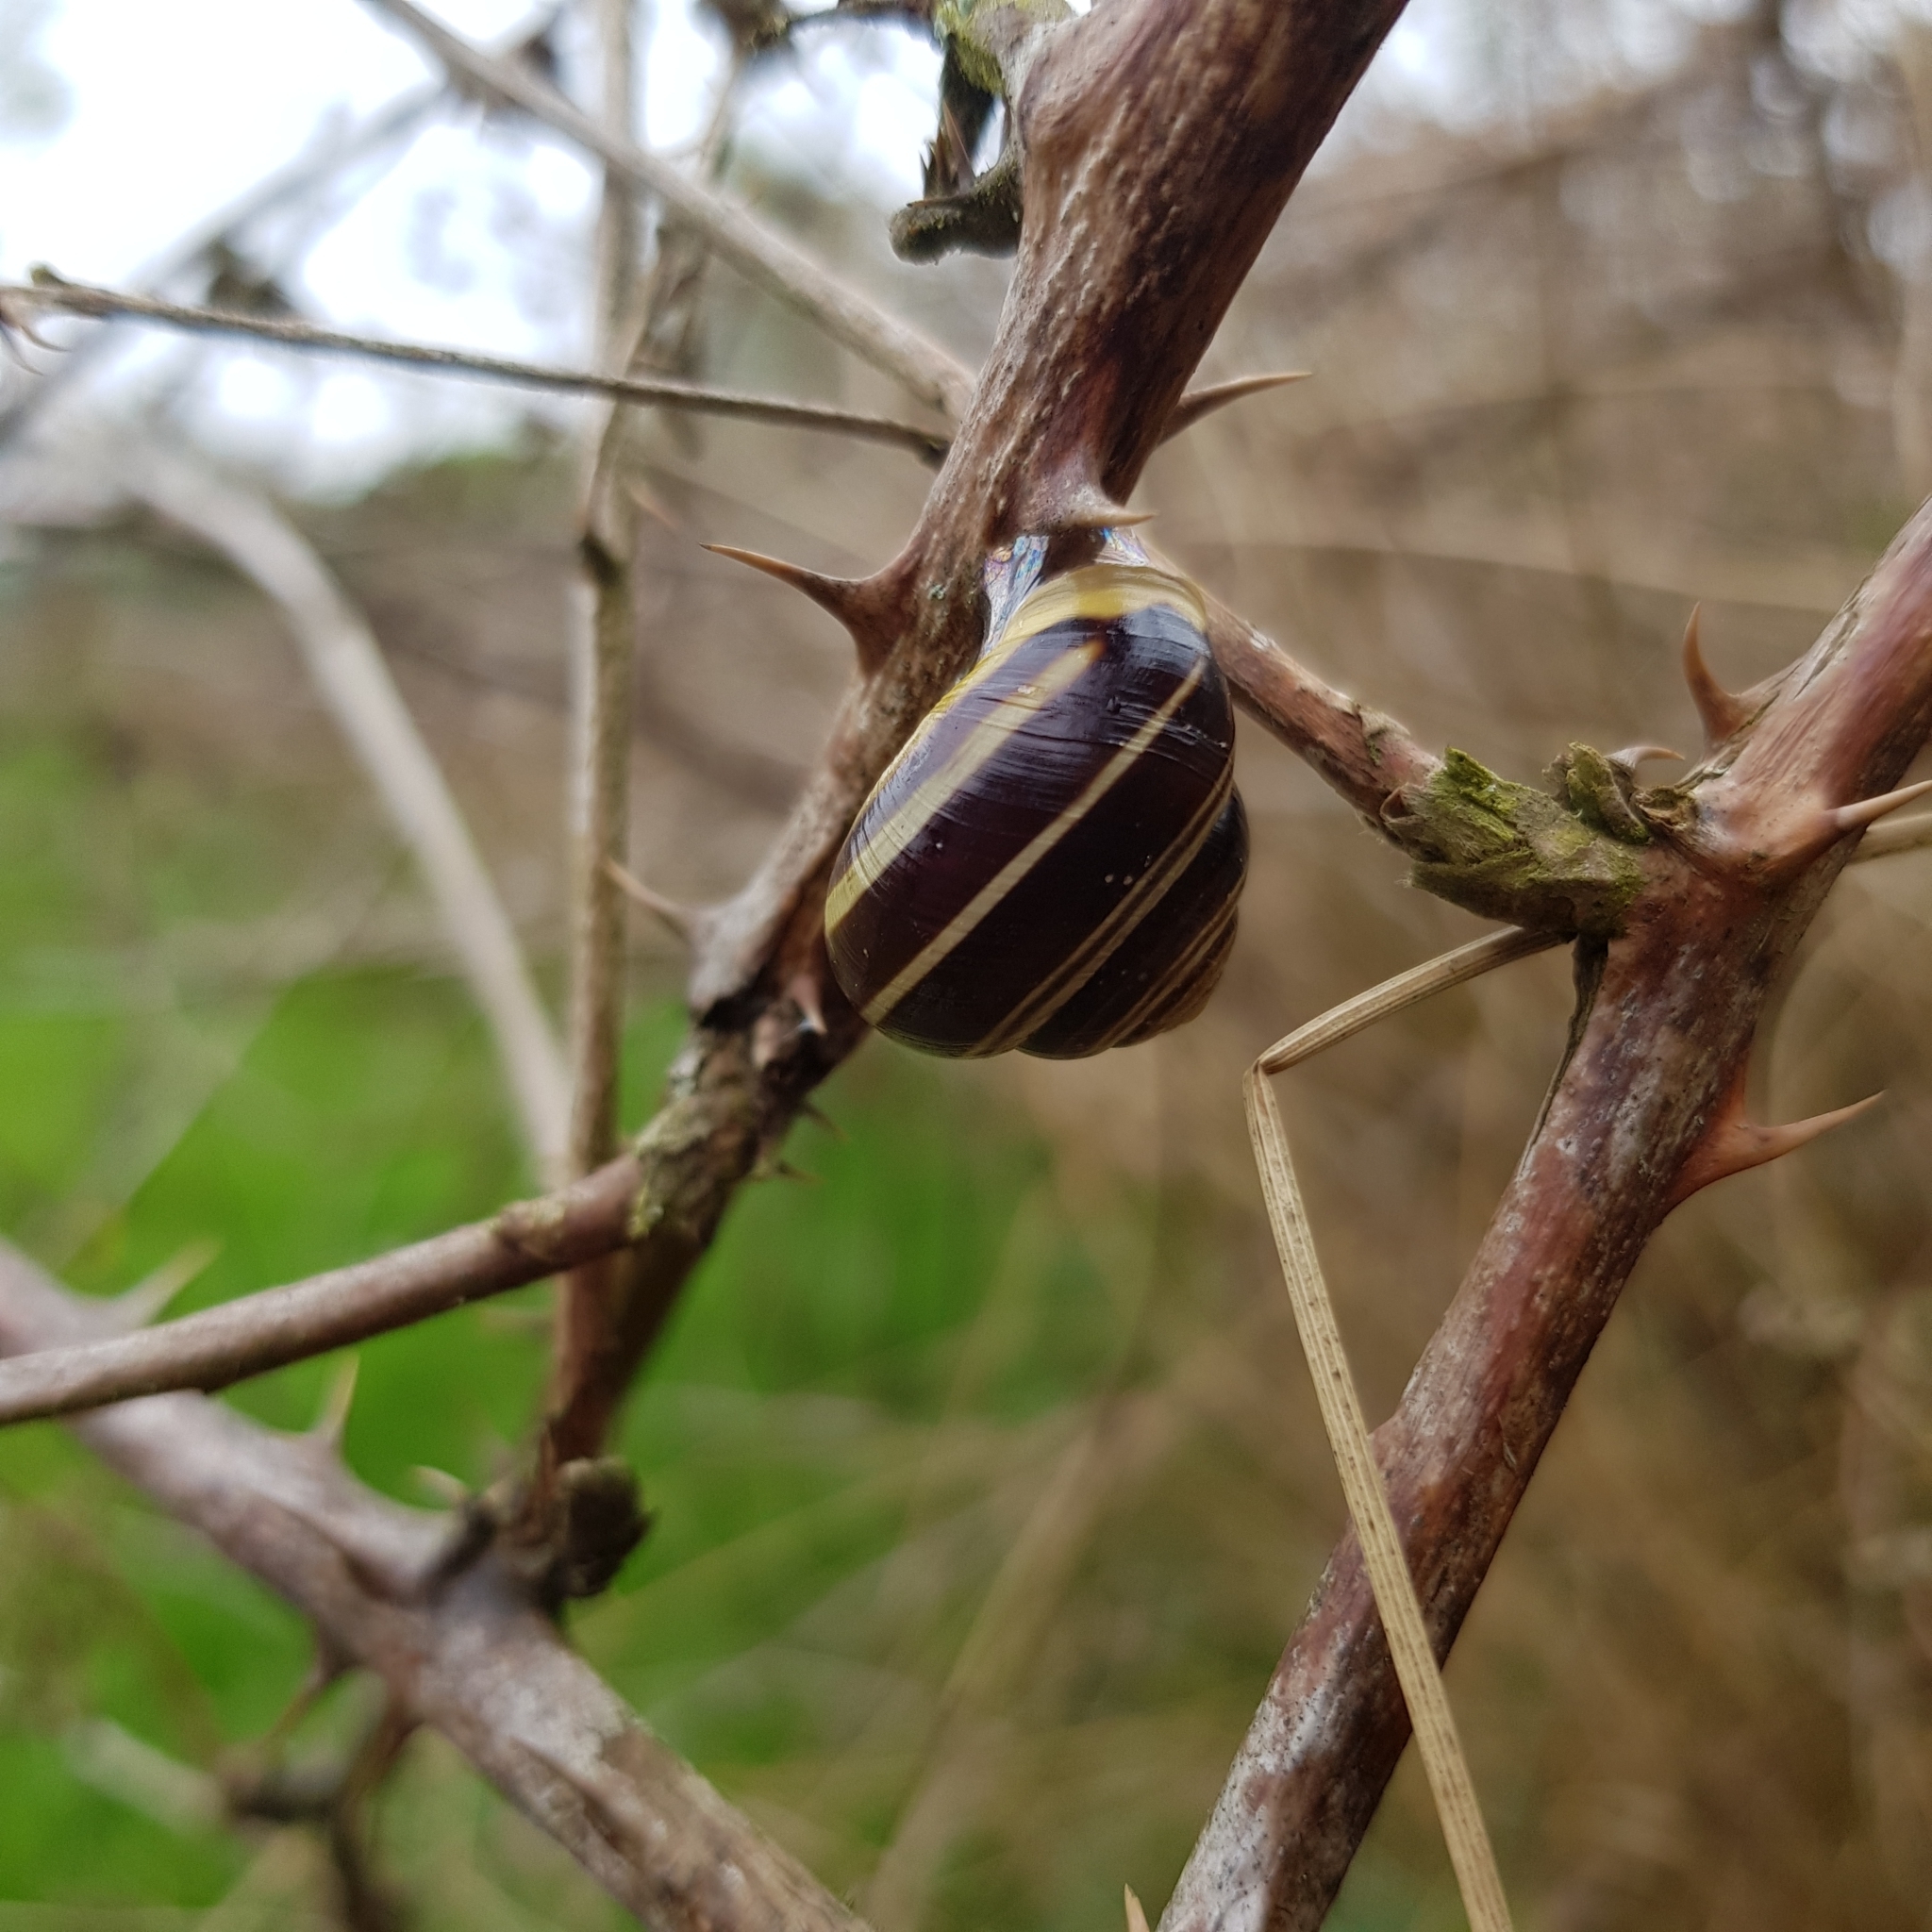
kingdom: Animalia
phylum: Mollusca
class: Gastropoda
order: Stylommatophora
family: Helicidae
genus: Cepaea
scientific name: Cepaea hortensis
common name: White-lip gardensnail
